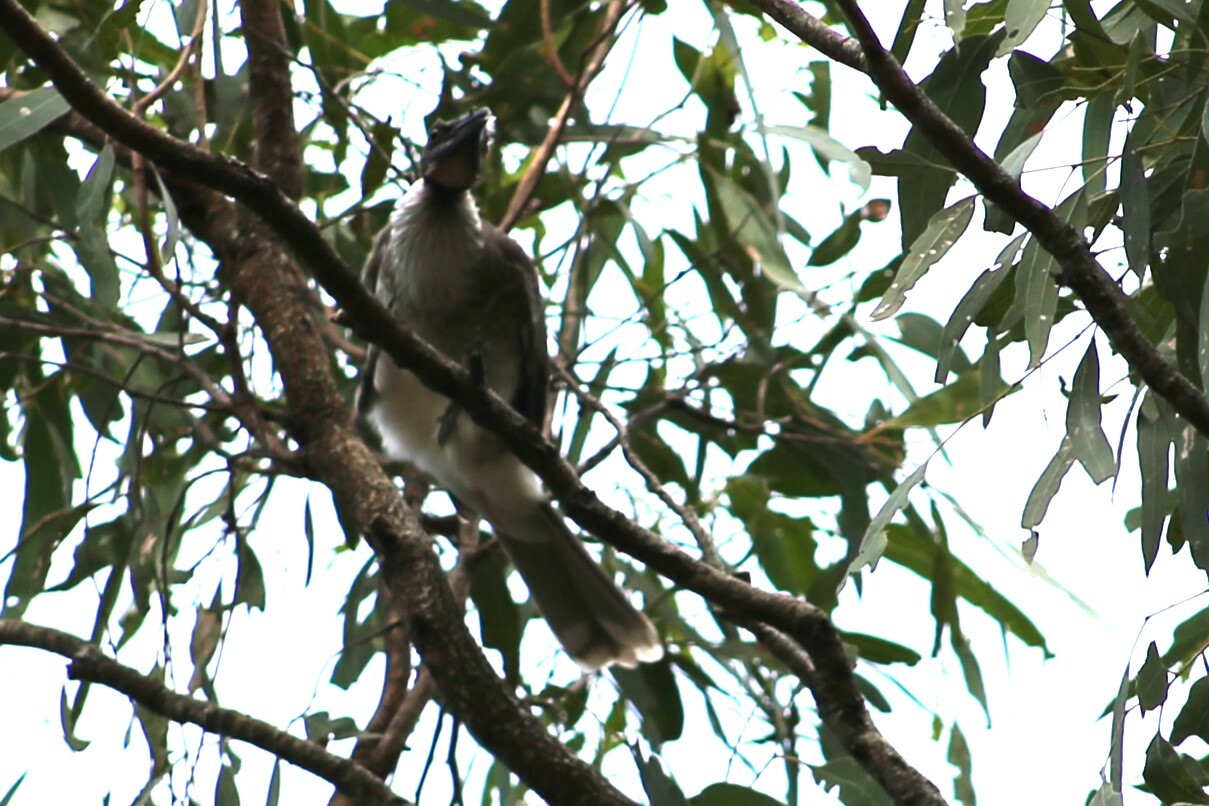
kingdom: Animalia
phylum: Chordata
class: Aves
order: Passeriformes
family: Meliphagidae
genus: Philemon
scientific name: Philemon corniculatus
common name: Noisy friarbird
